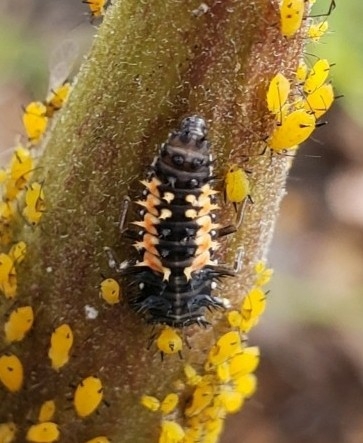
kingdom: Animalia
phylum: Arthropoda
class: Insecta
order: Coleoptera
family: Coccinellidae
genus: Harmonia
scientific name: Harmonia axyridis
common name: Harlequin ladybird
